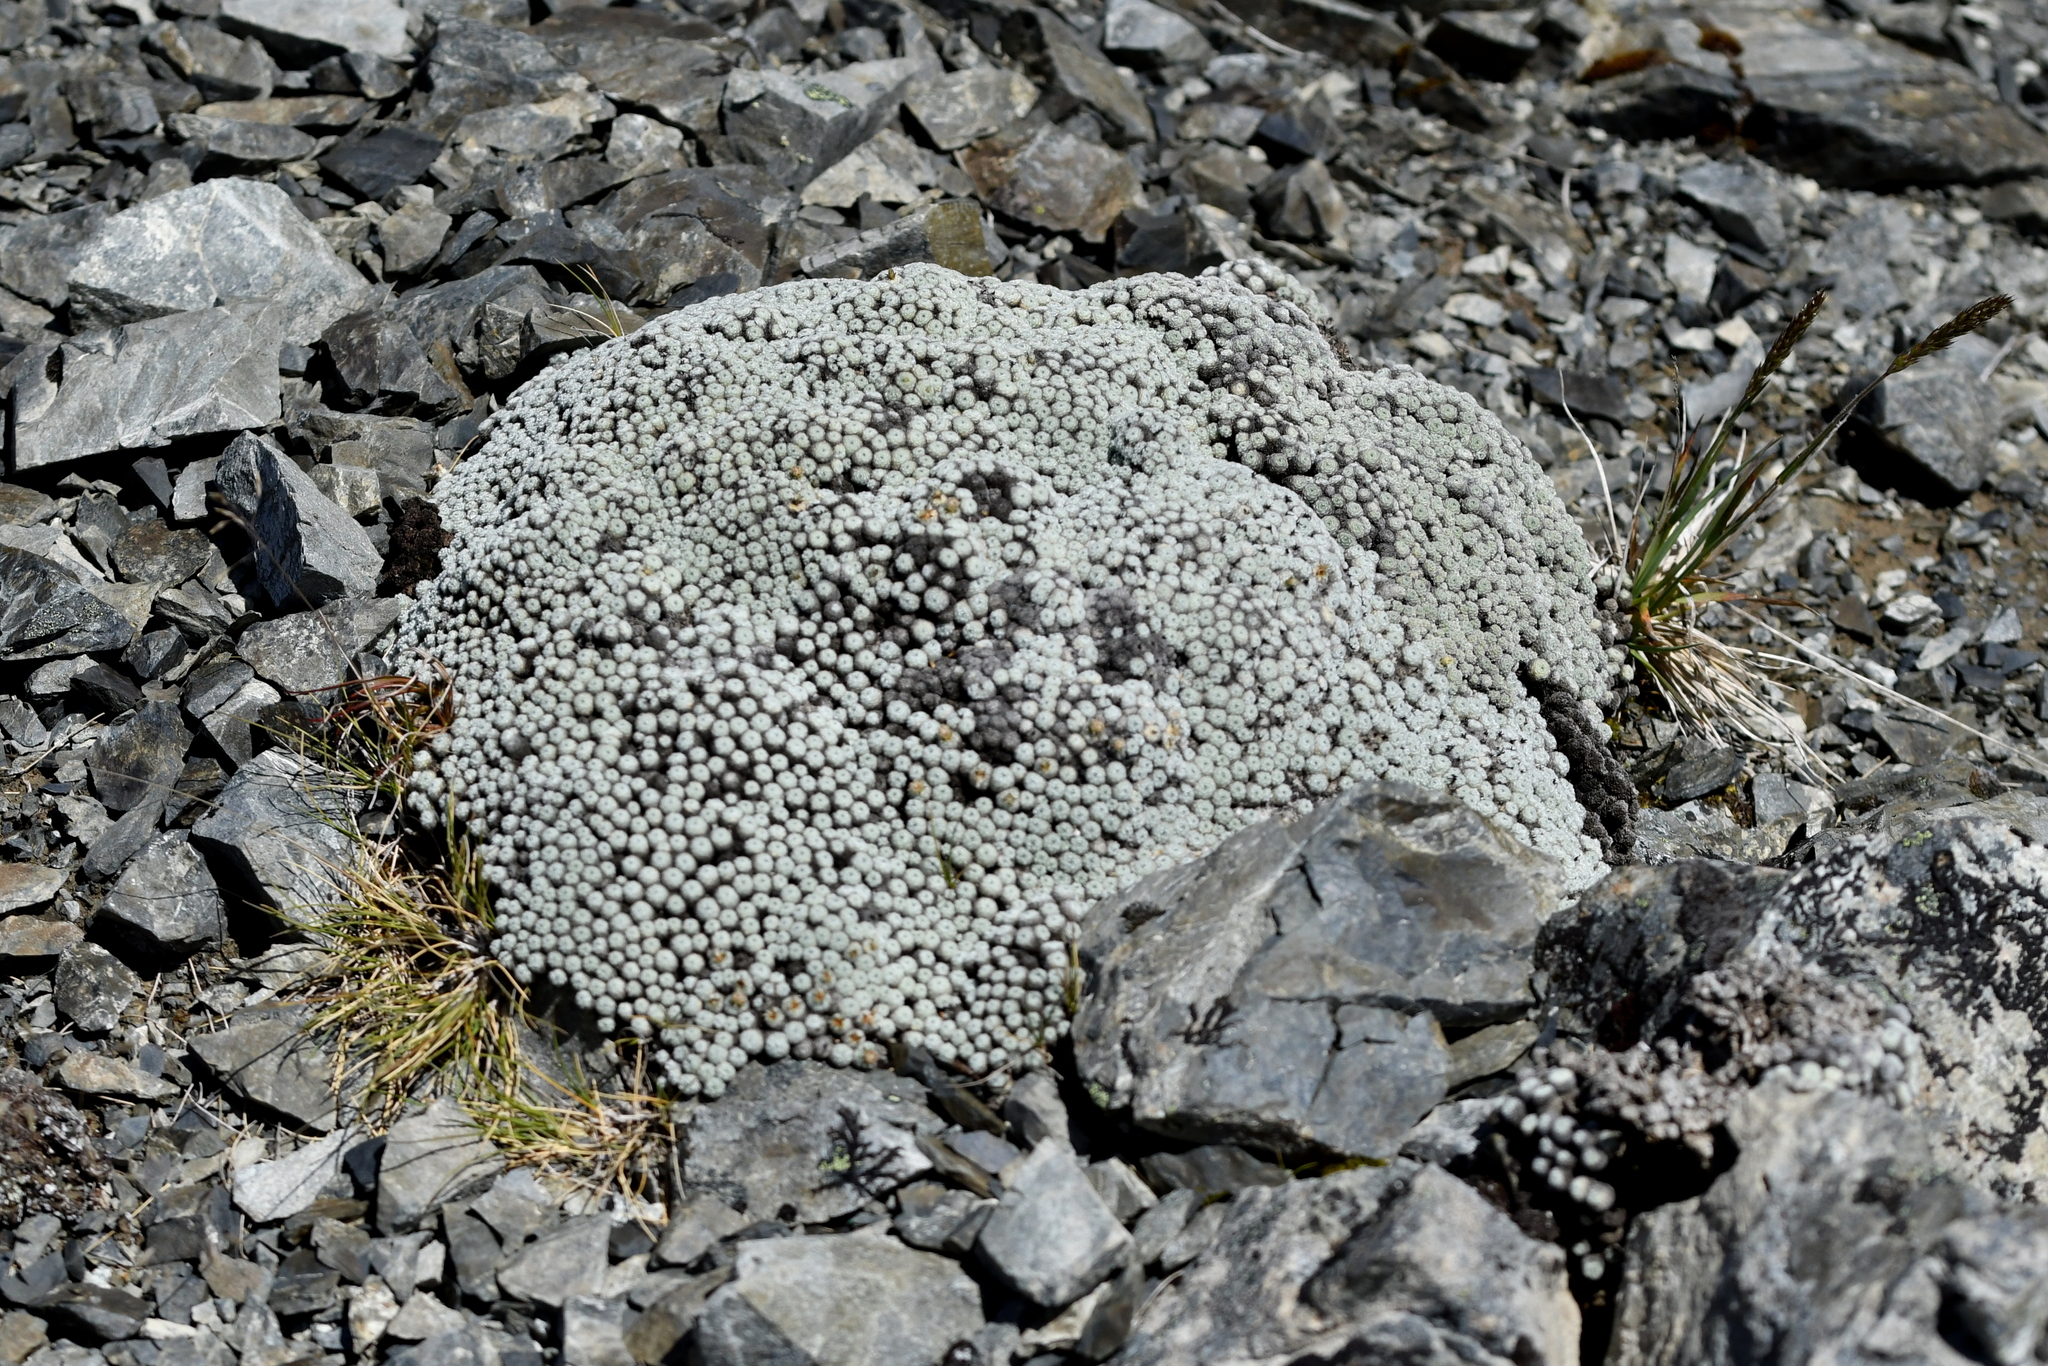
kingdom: Plantae
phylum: Tracheophyta
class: Magnoliopsida
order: Asterales
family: Asteraceae
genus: Raoulia
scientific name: Raoulia mammillaris
